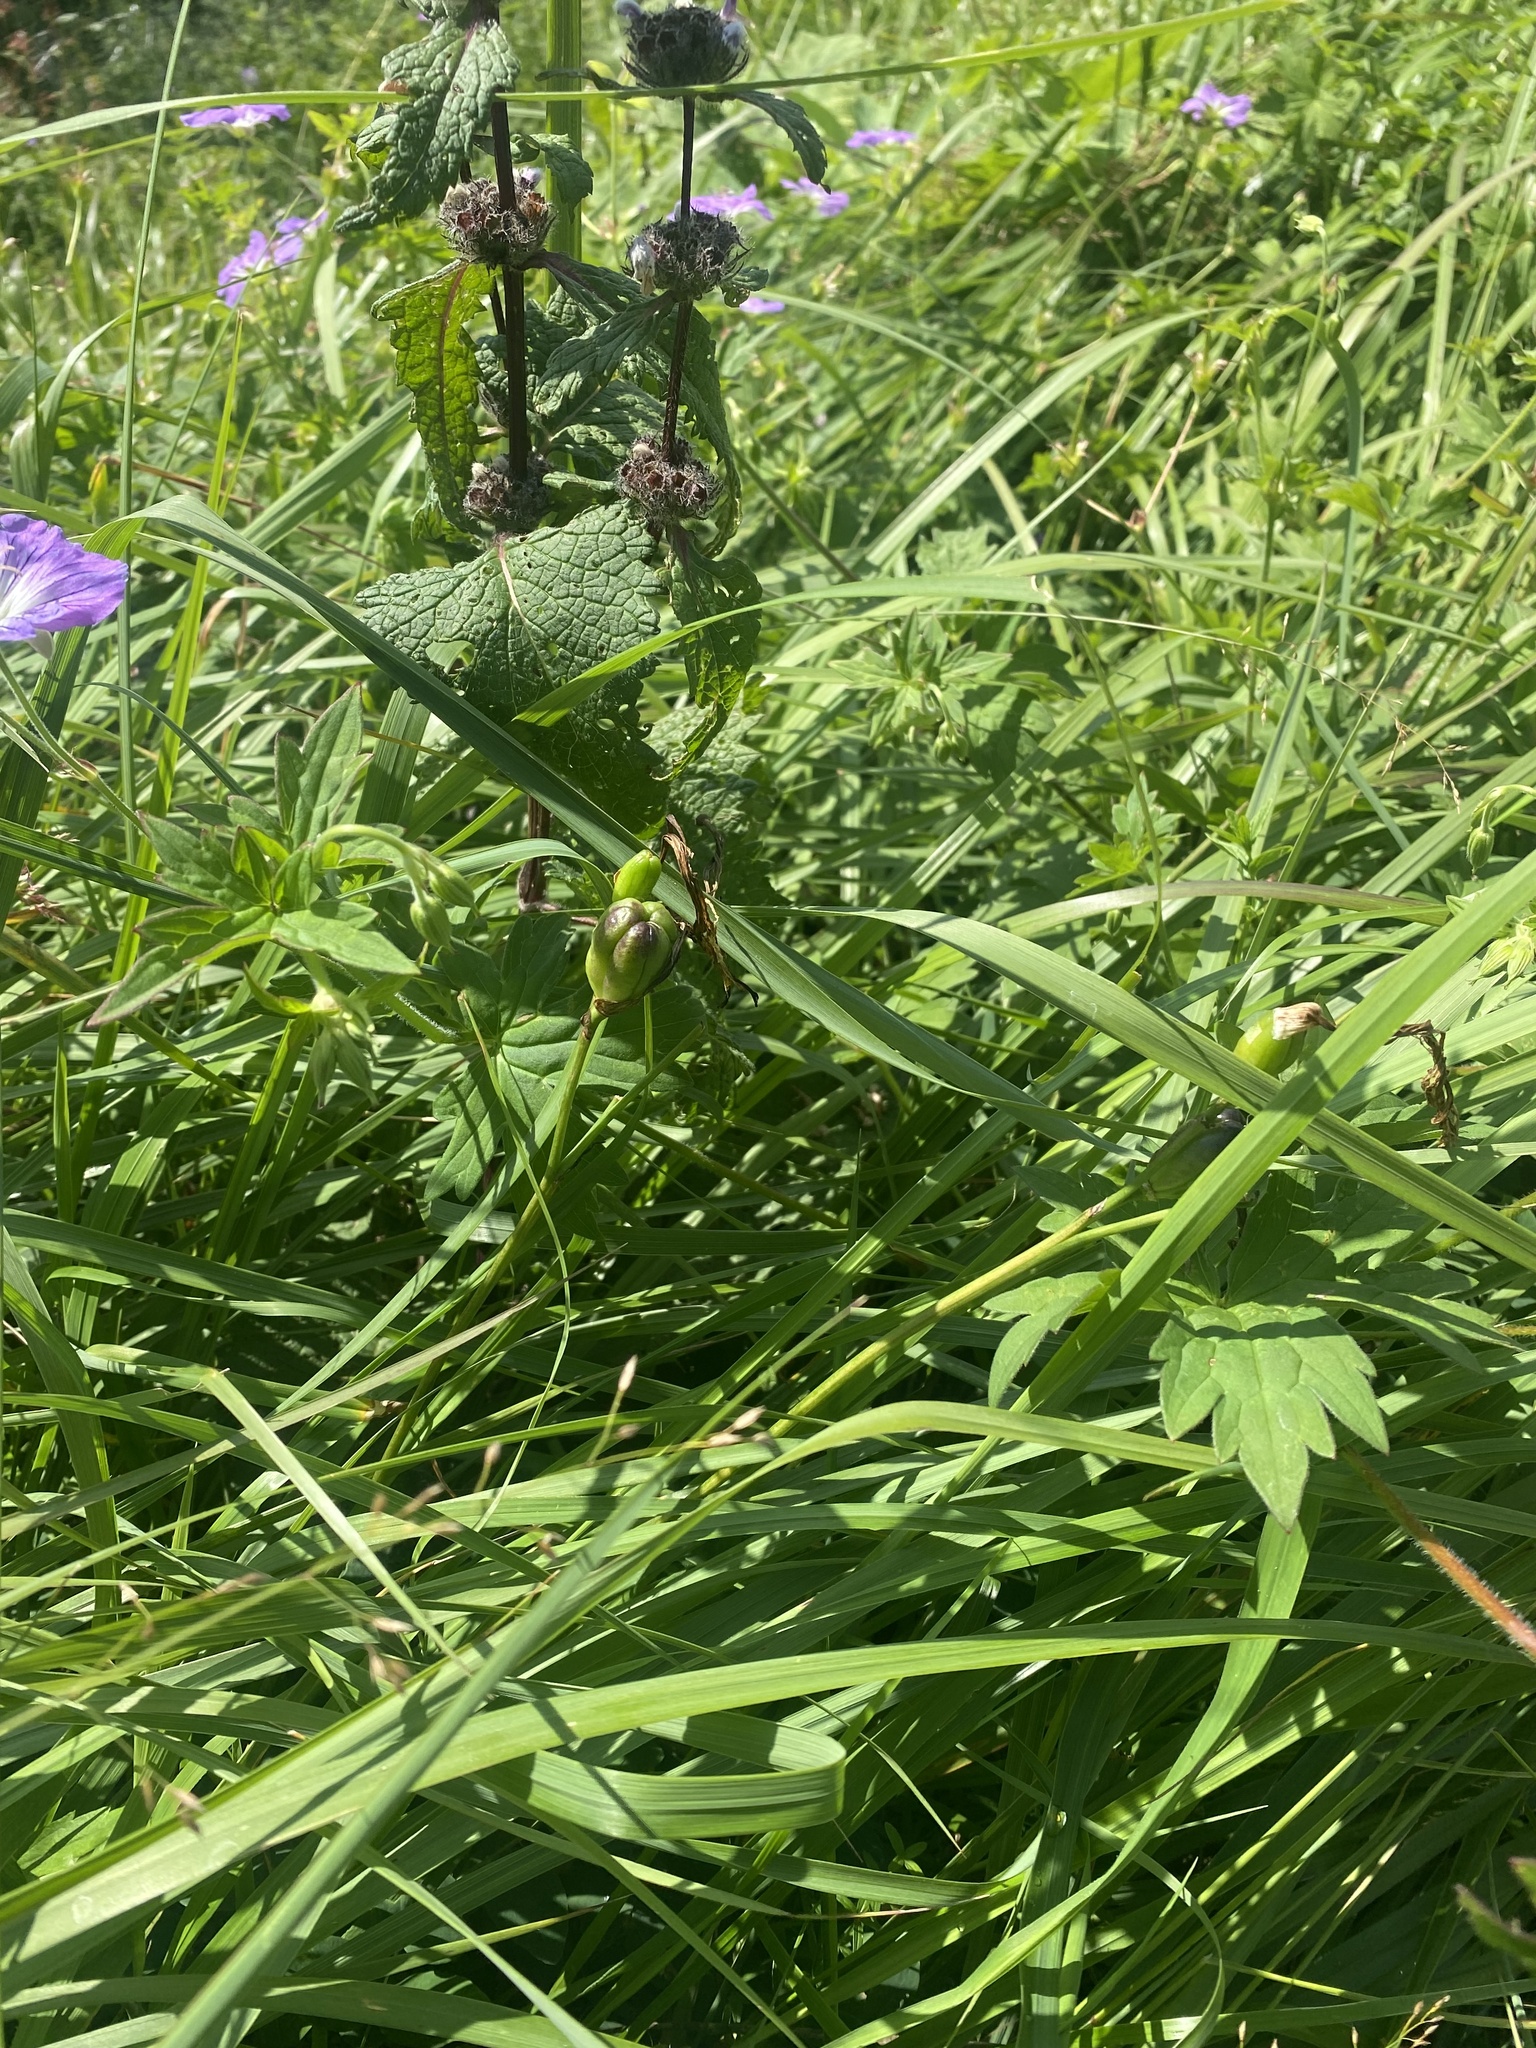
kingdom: Plantae
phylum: Tracheophyta
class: Liliopsida
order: Asparagales
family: Asphodelaceae
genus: Hemerocallis
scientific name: Hemerocallis minor
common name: Small daylily
